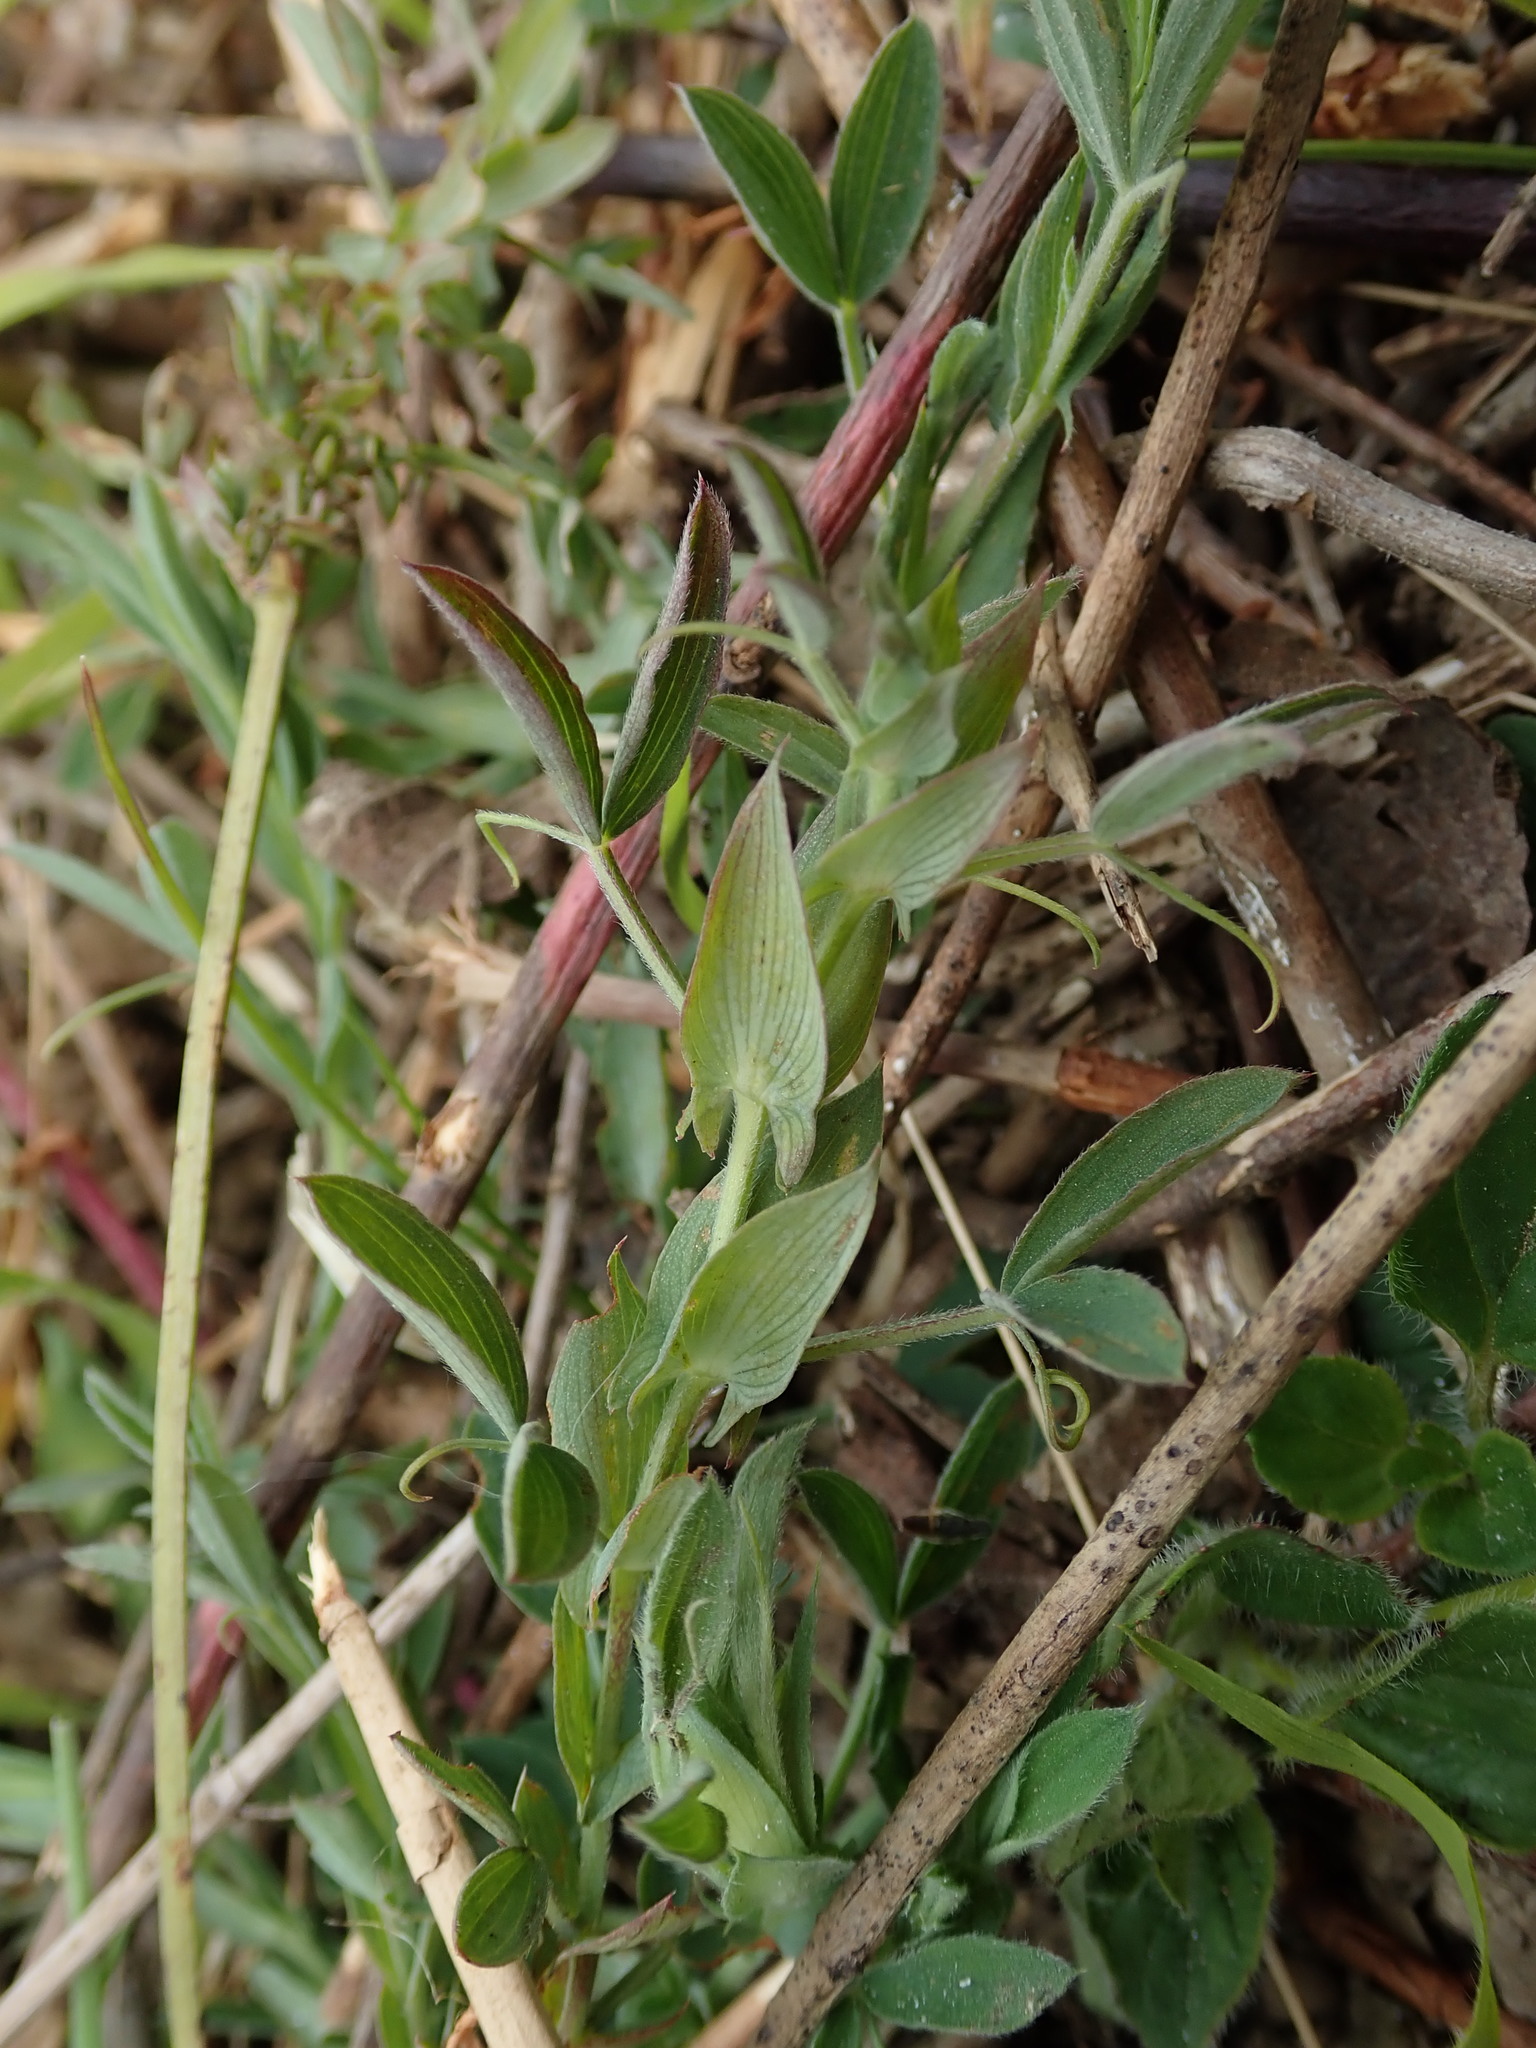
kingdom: Plantae
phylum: Tracheophyta
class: Magnoliopsida
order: Fabales
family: Fabaceae
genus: Lathyrus
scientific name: Lathyrus pratensis
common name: Meadow vetchling
